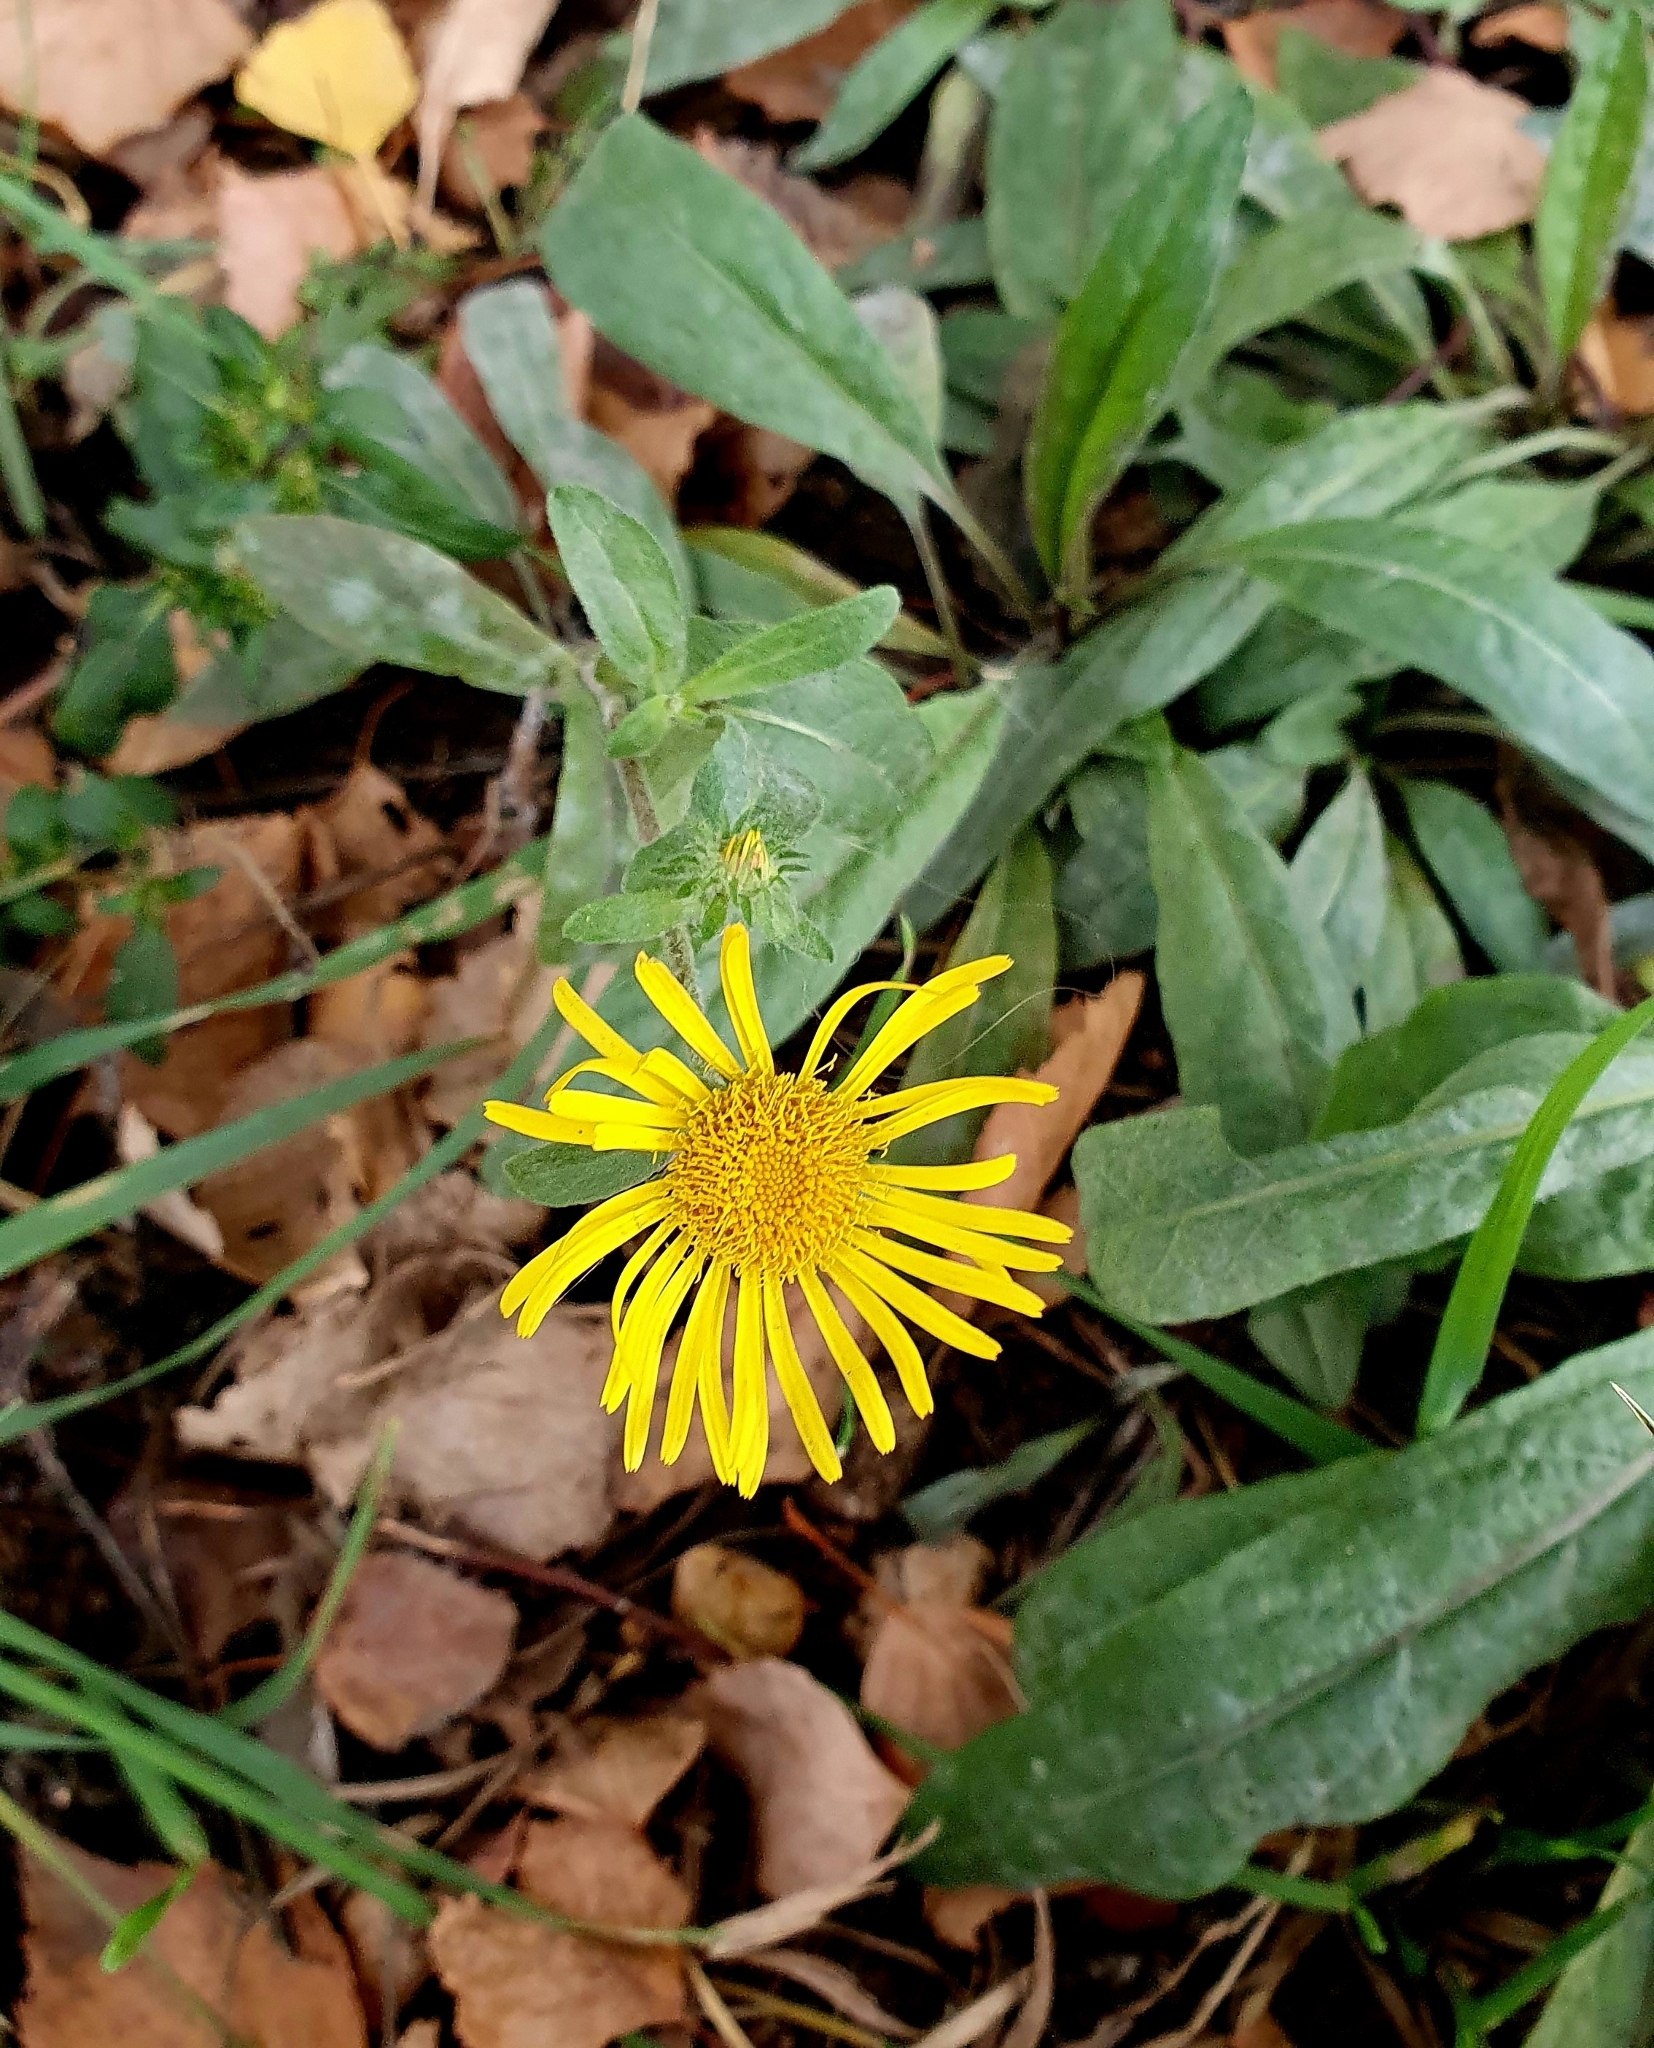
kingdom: Plantae
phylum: Tracheophyta
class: Magnoliopsida
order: Asterales
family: Asteraceae
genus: Pentanema
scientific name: Pentanema britannicum
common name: British elecampane
